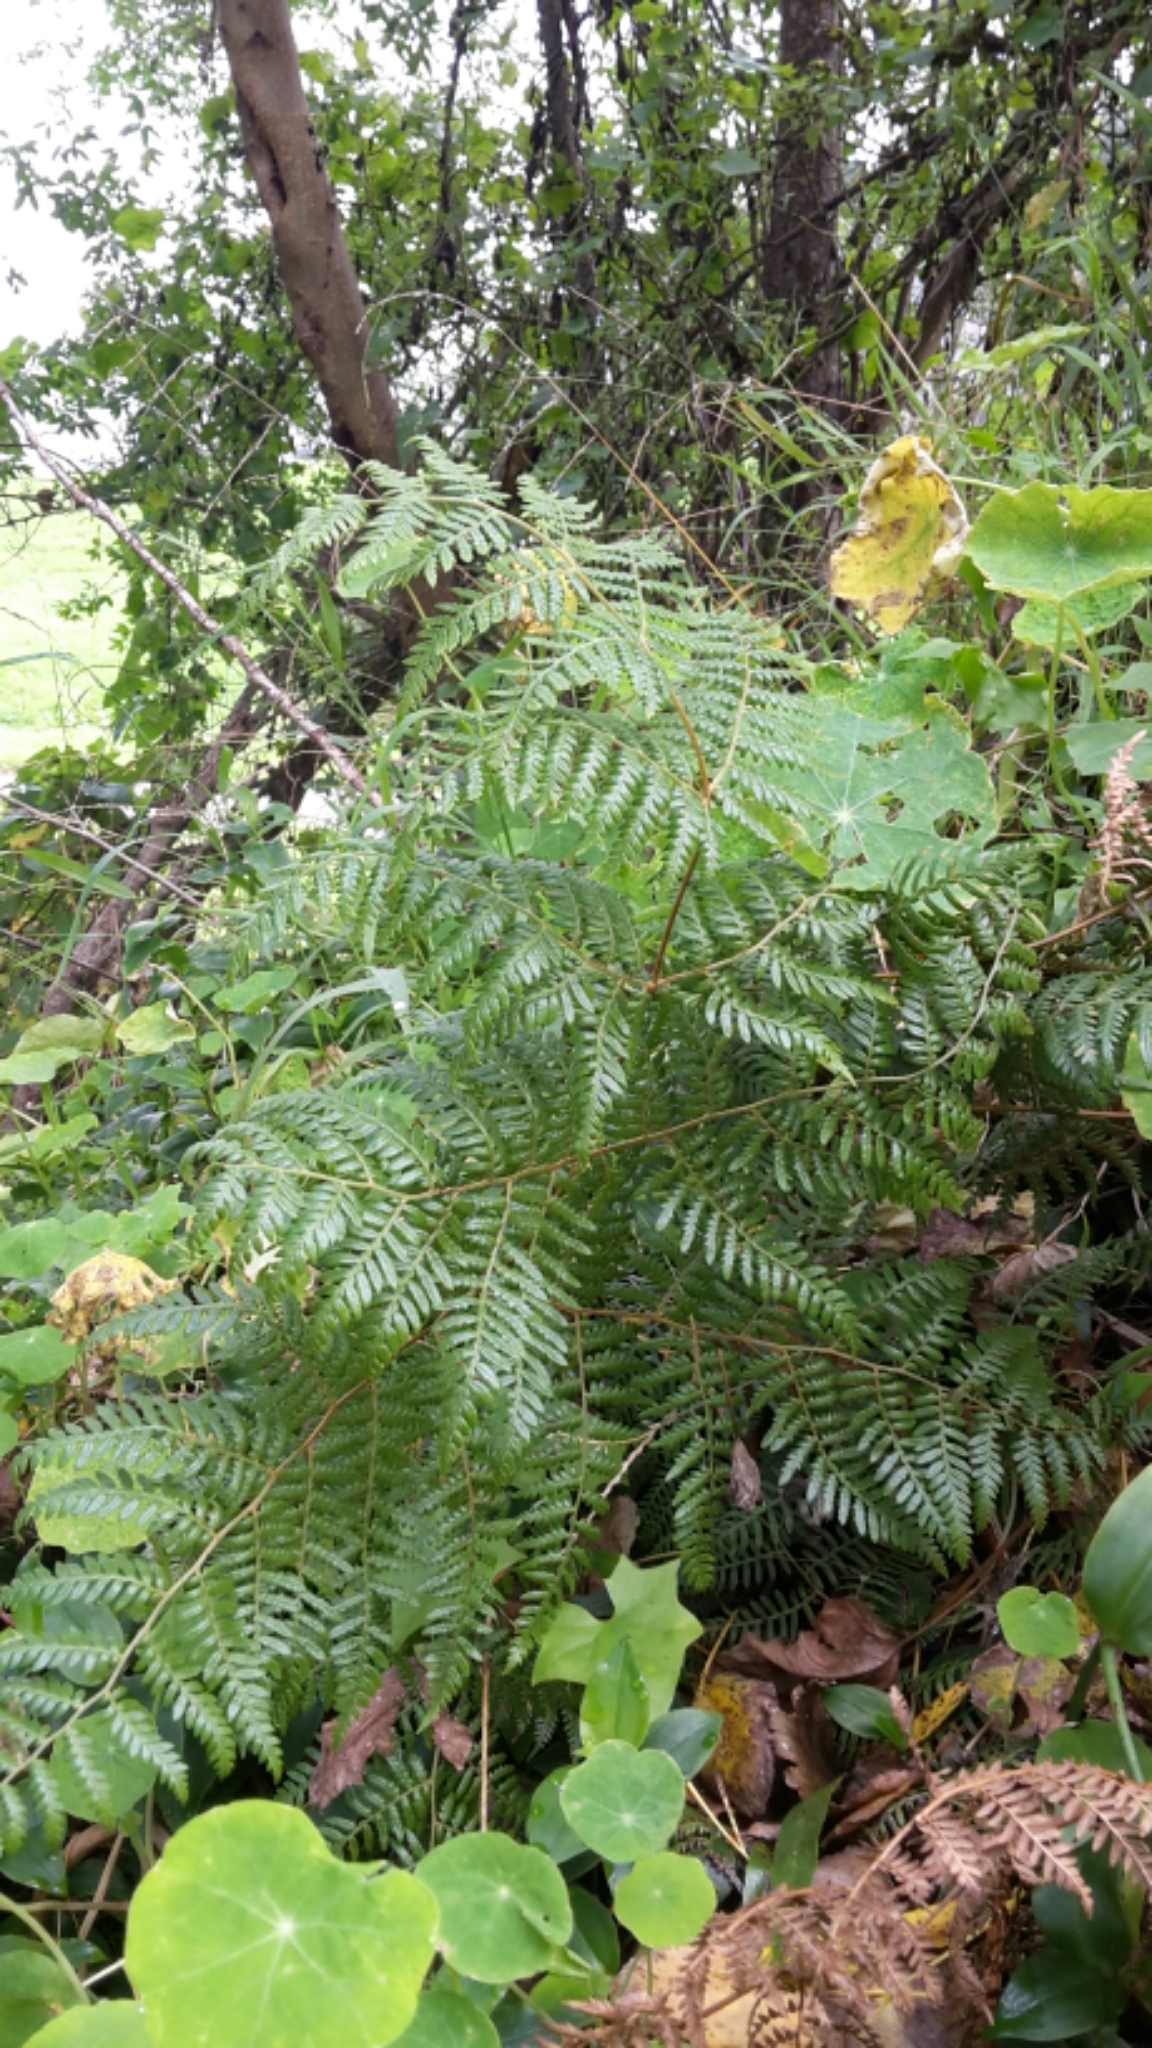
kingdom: Plantae
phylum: Tracheophyta
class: Polypodiopsida
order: Polypodiales
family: Dennstaedtiaceae
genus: Pteridium
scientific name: Pteridium esculentum
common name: Bracken fern
